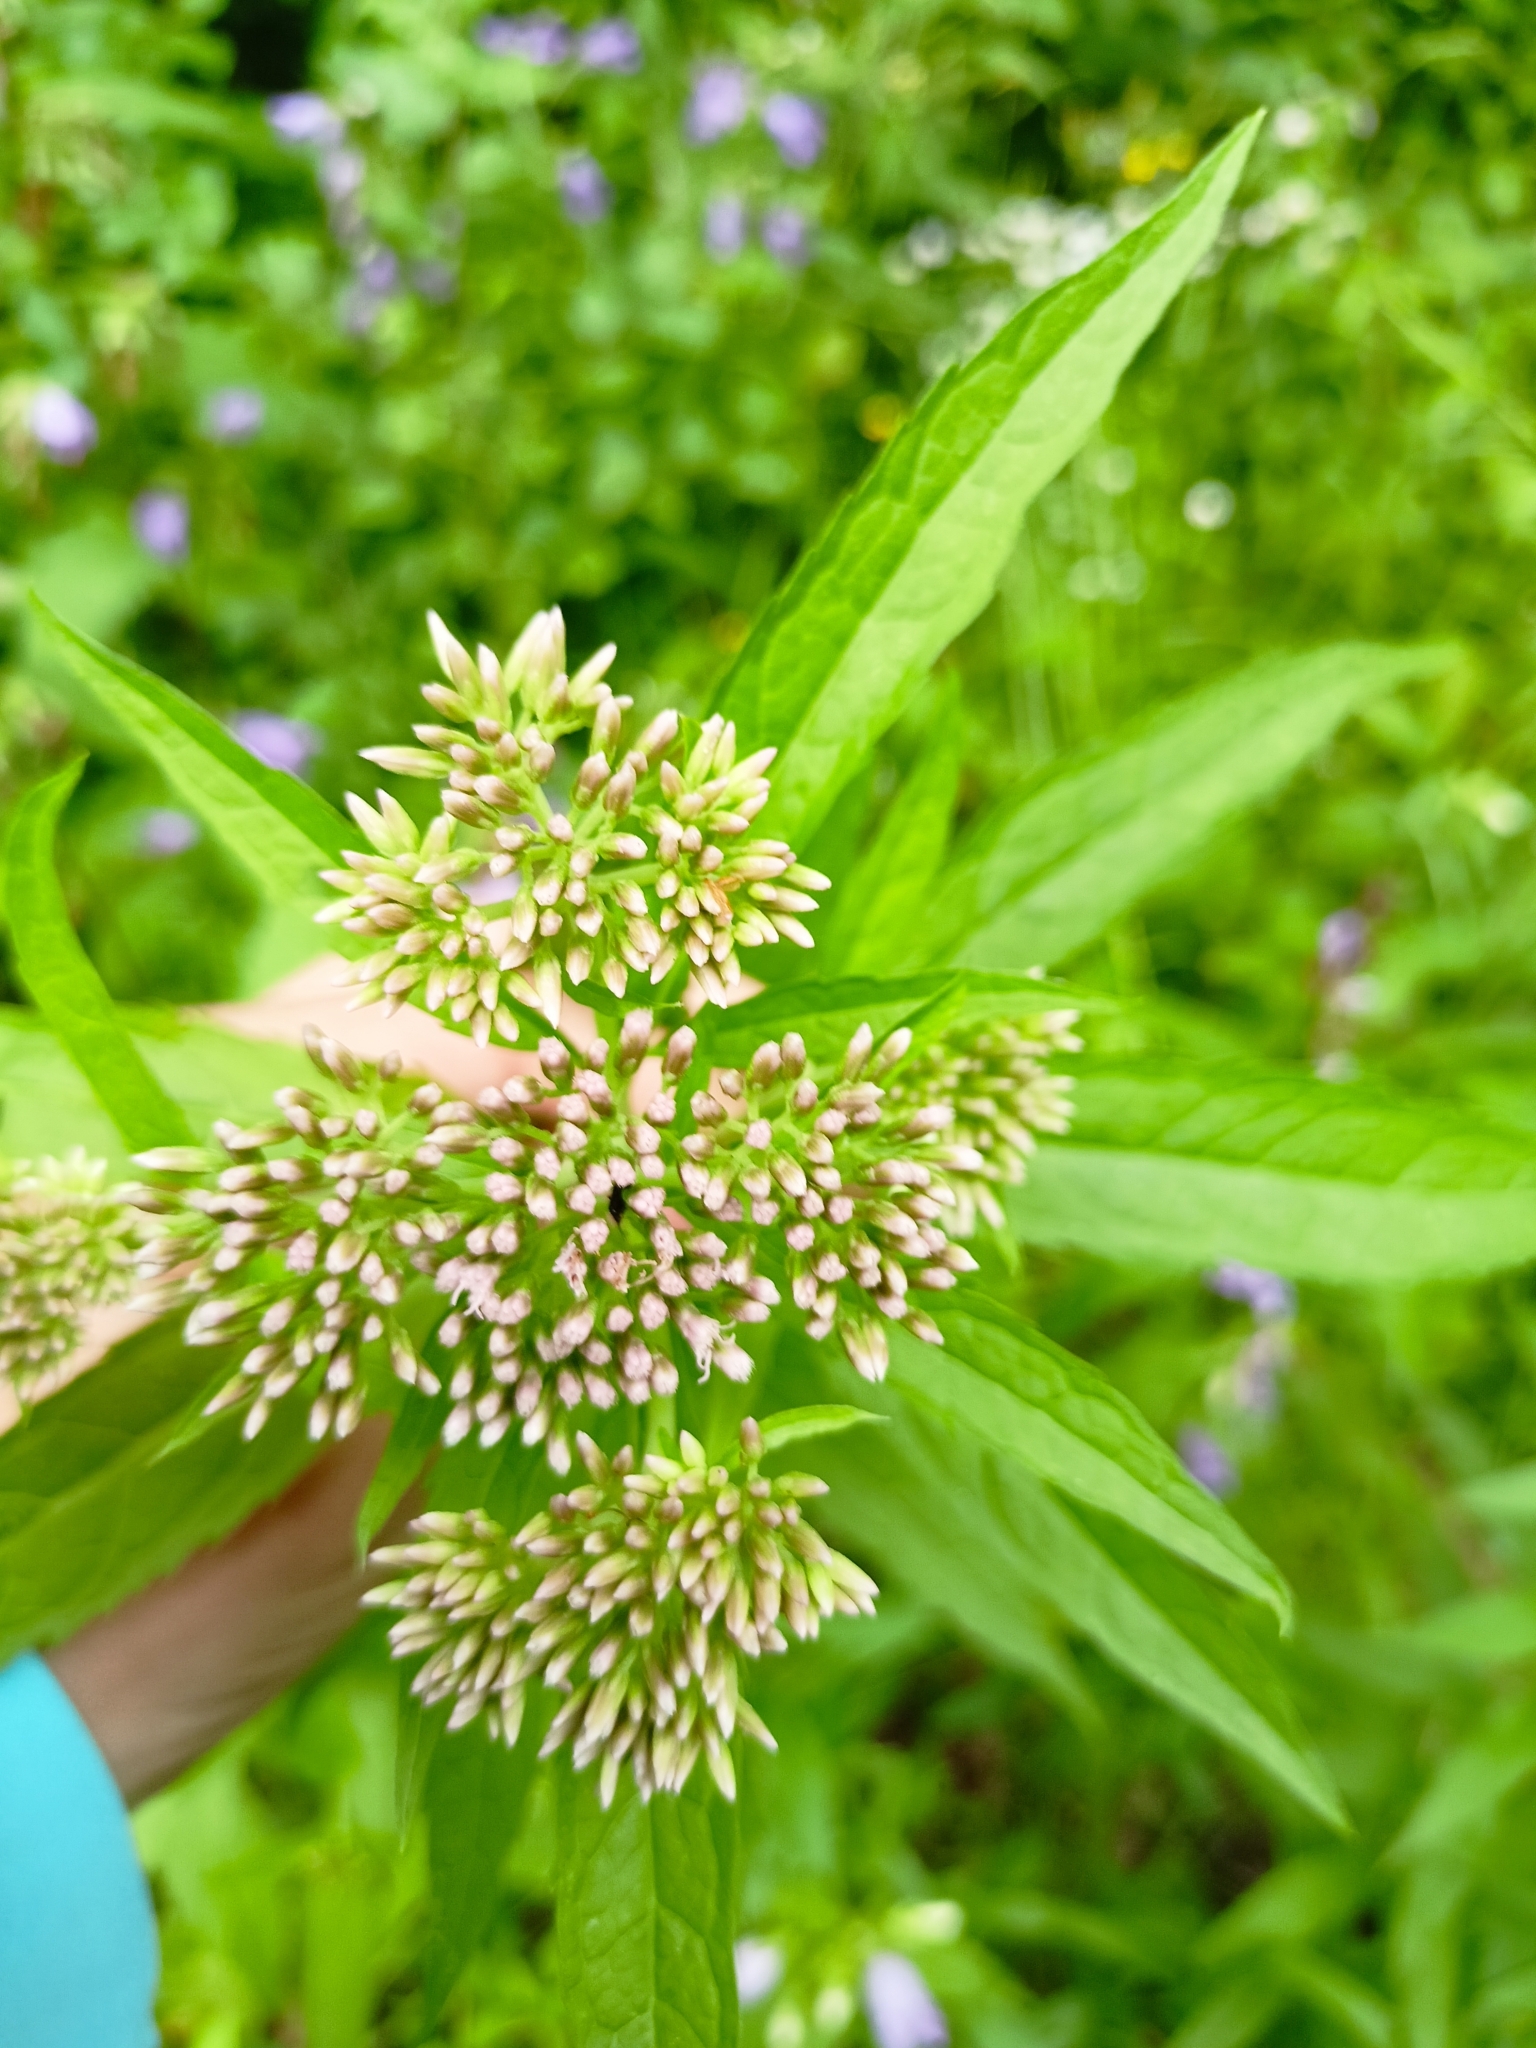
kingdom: Plantae
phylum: Tracheophyta
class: Magnoliopsida
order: Asterales
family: Asteraceae
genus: Eupatorium
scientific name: Eupatorium cannabinum
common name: Hemp-agrimony
